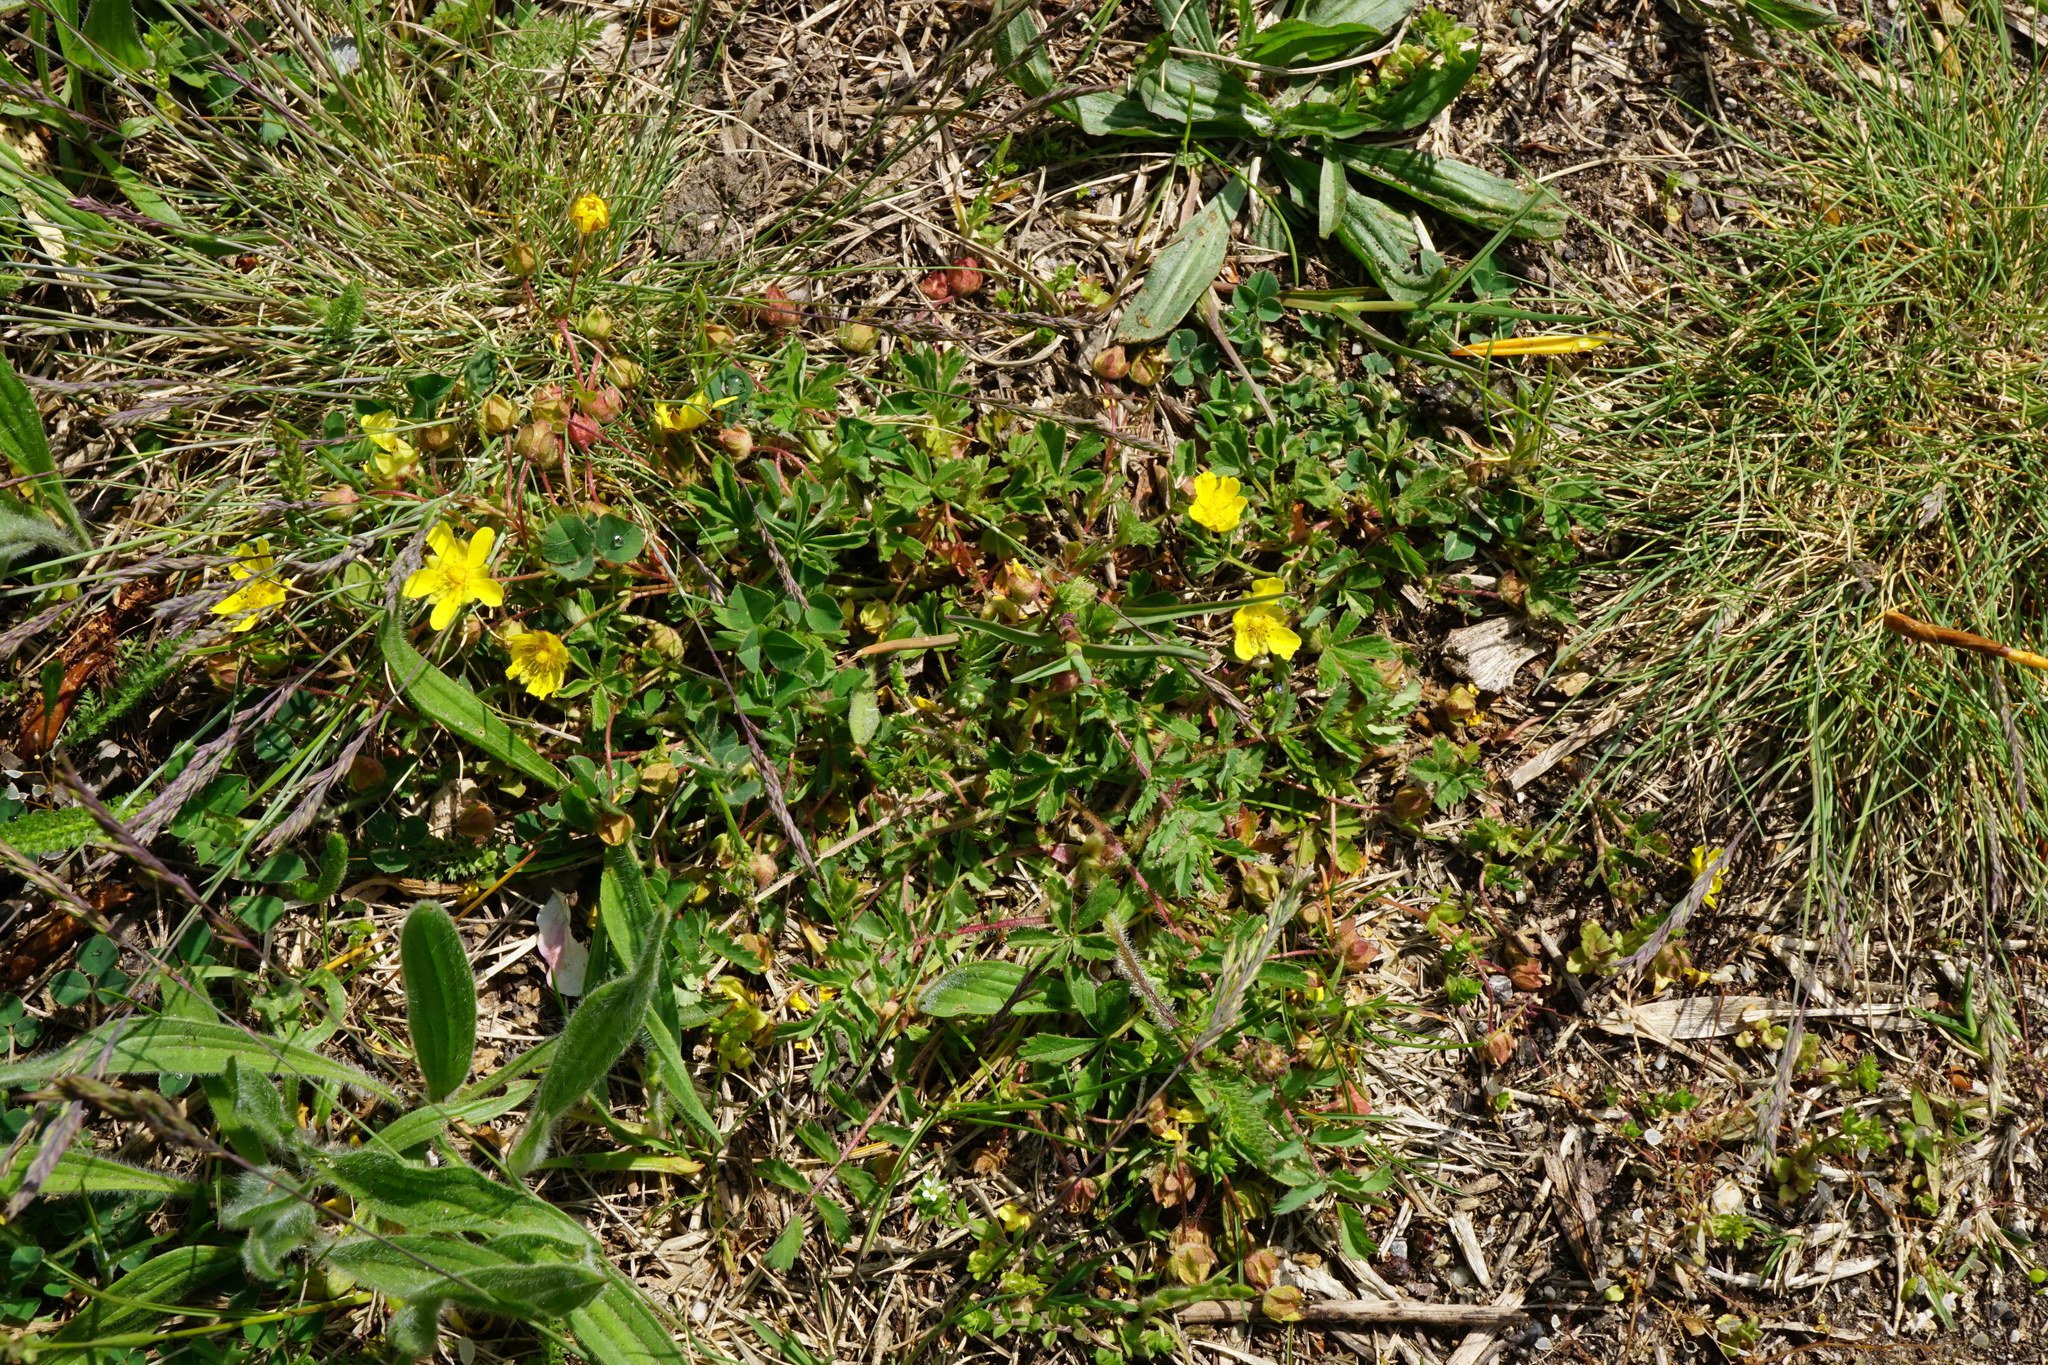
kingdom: Plantae
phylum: Tracheophyta
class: Magnoliopsida
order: Rosales
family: Rosaceae
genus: Potentilla
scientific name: Potentilla incana
